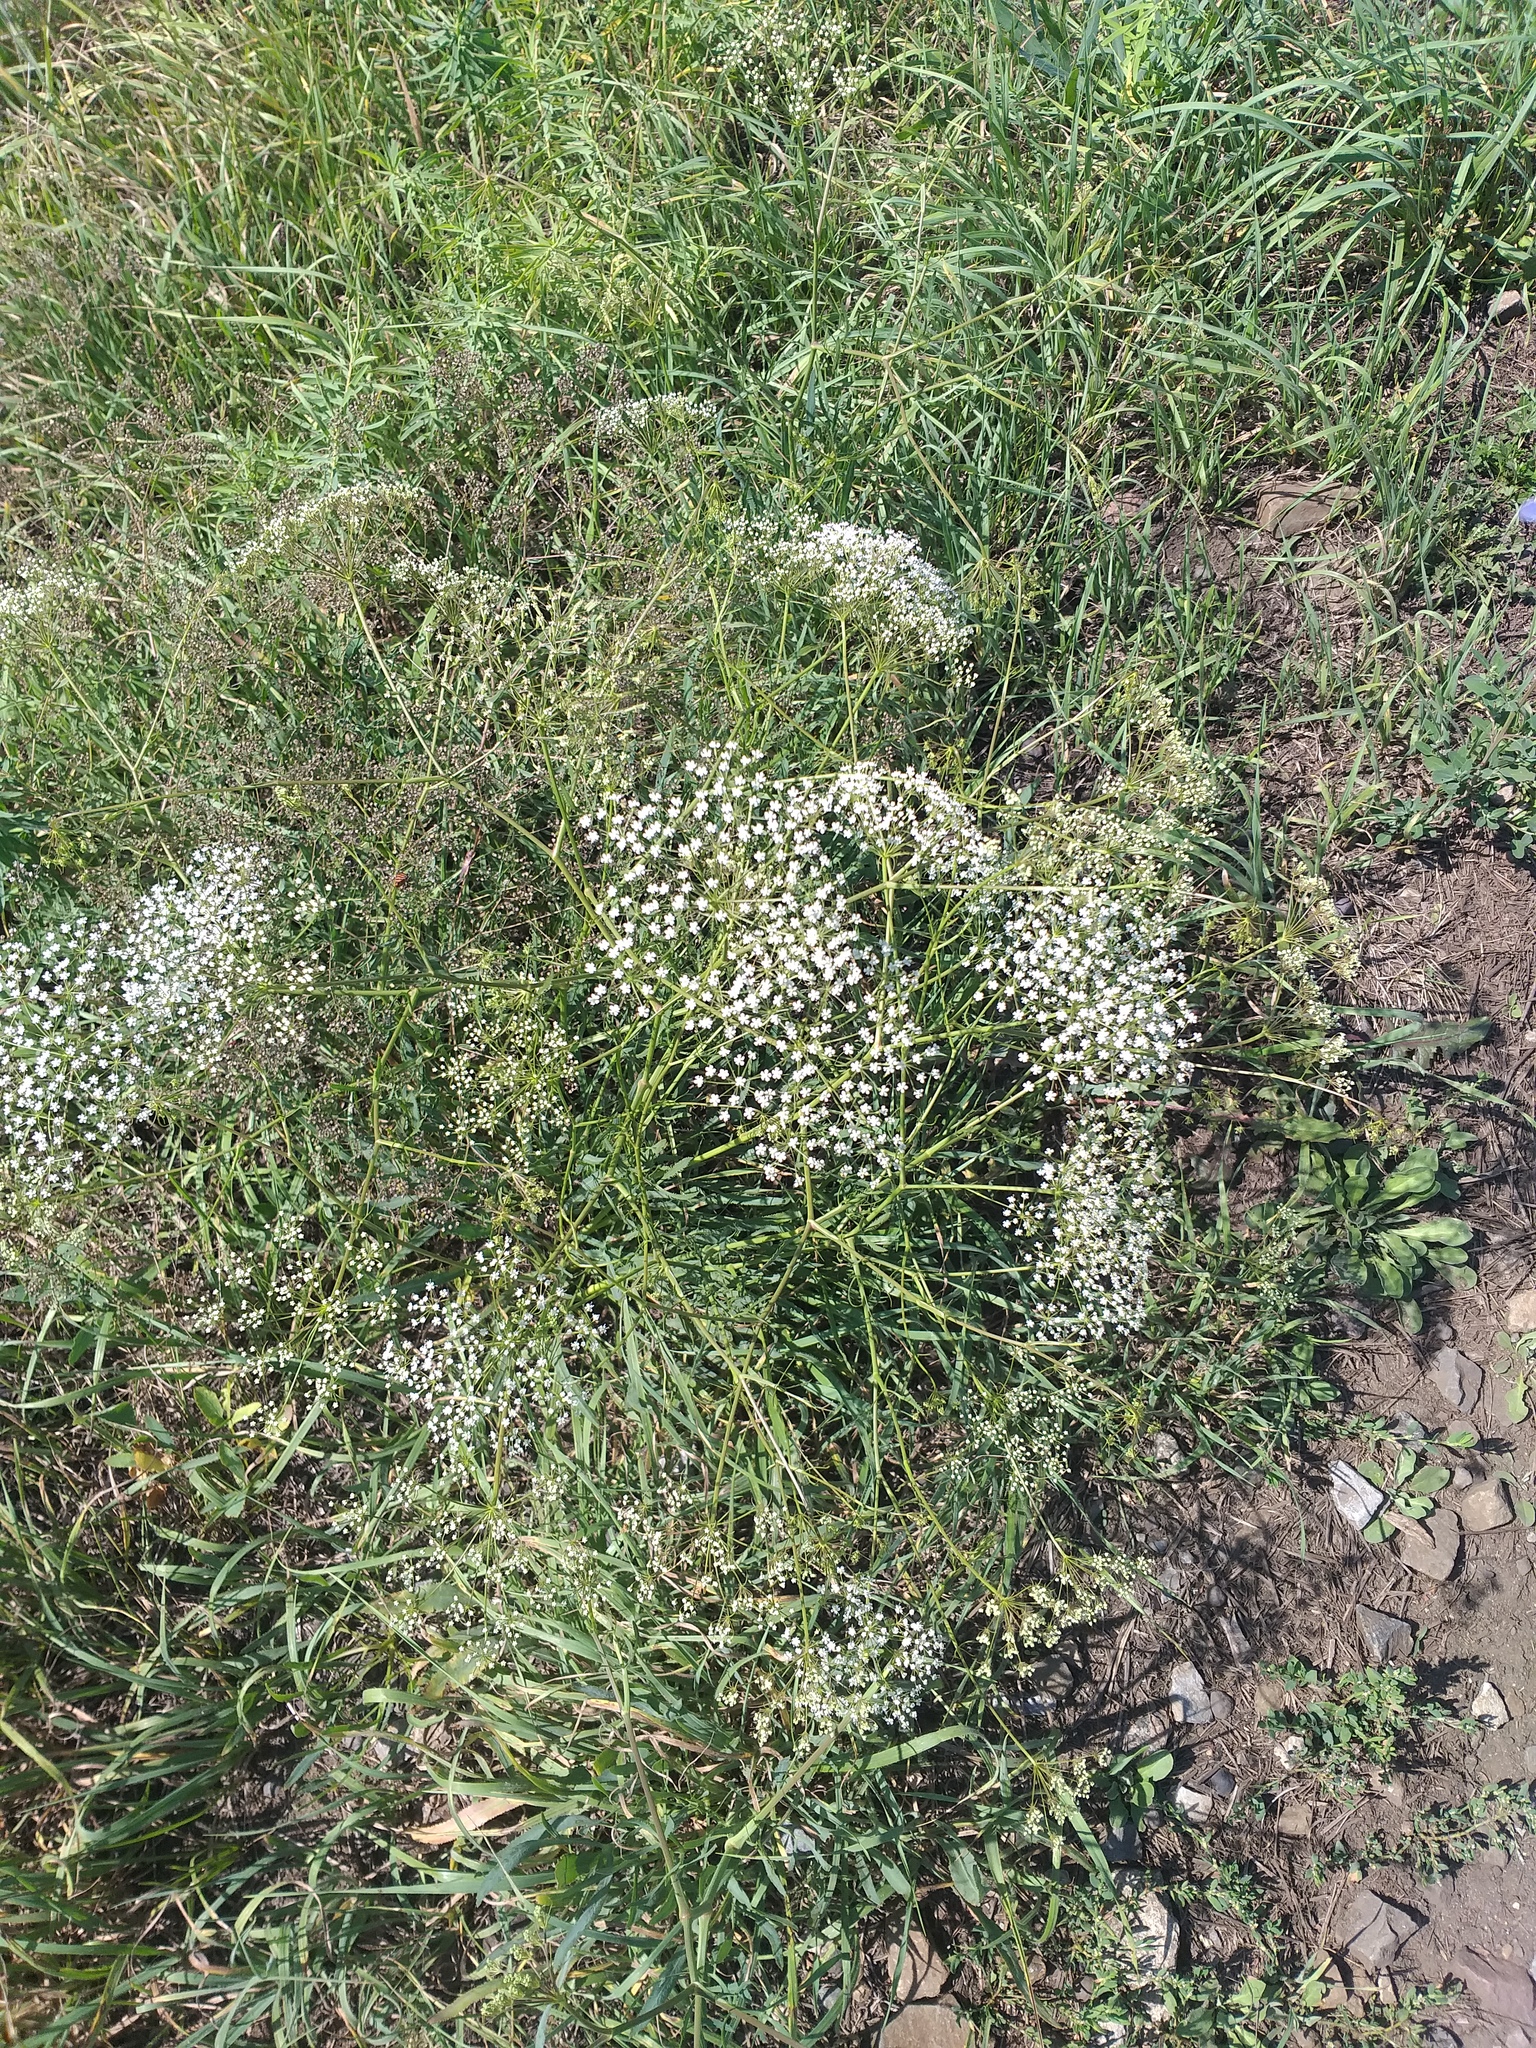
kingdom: Plantae
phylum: Tracheophyta
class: Magnoliopsida
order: Apiales
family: Apiaceae
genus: Falcaria
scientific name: Falcaria vulgaris
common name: Longleaf
